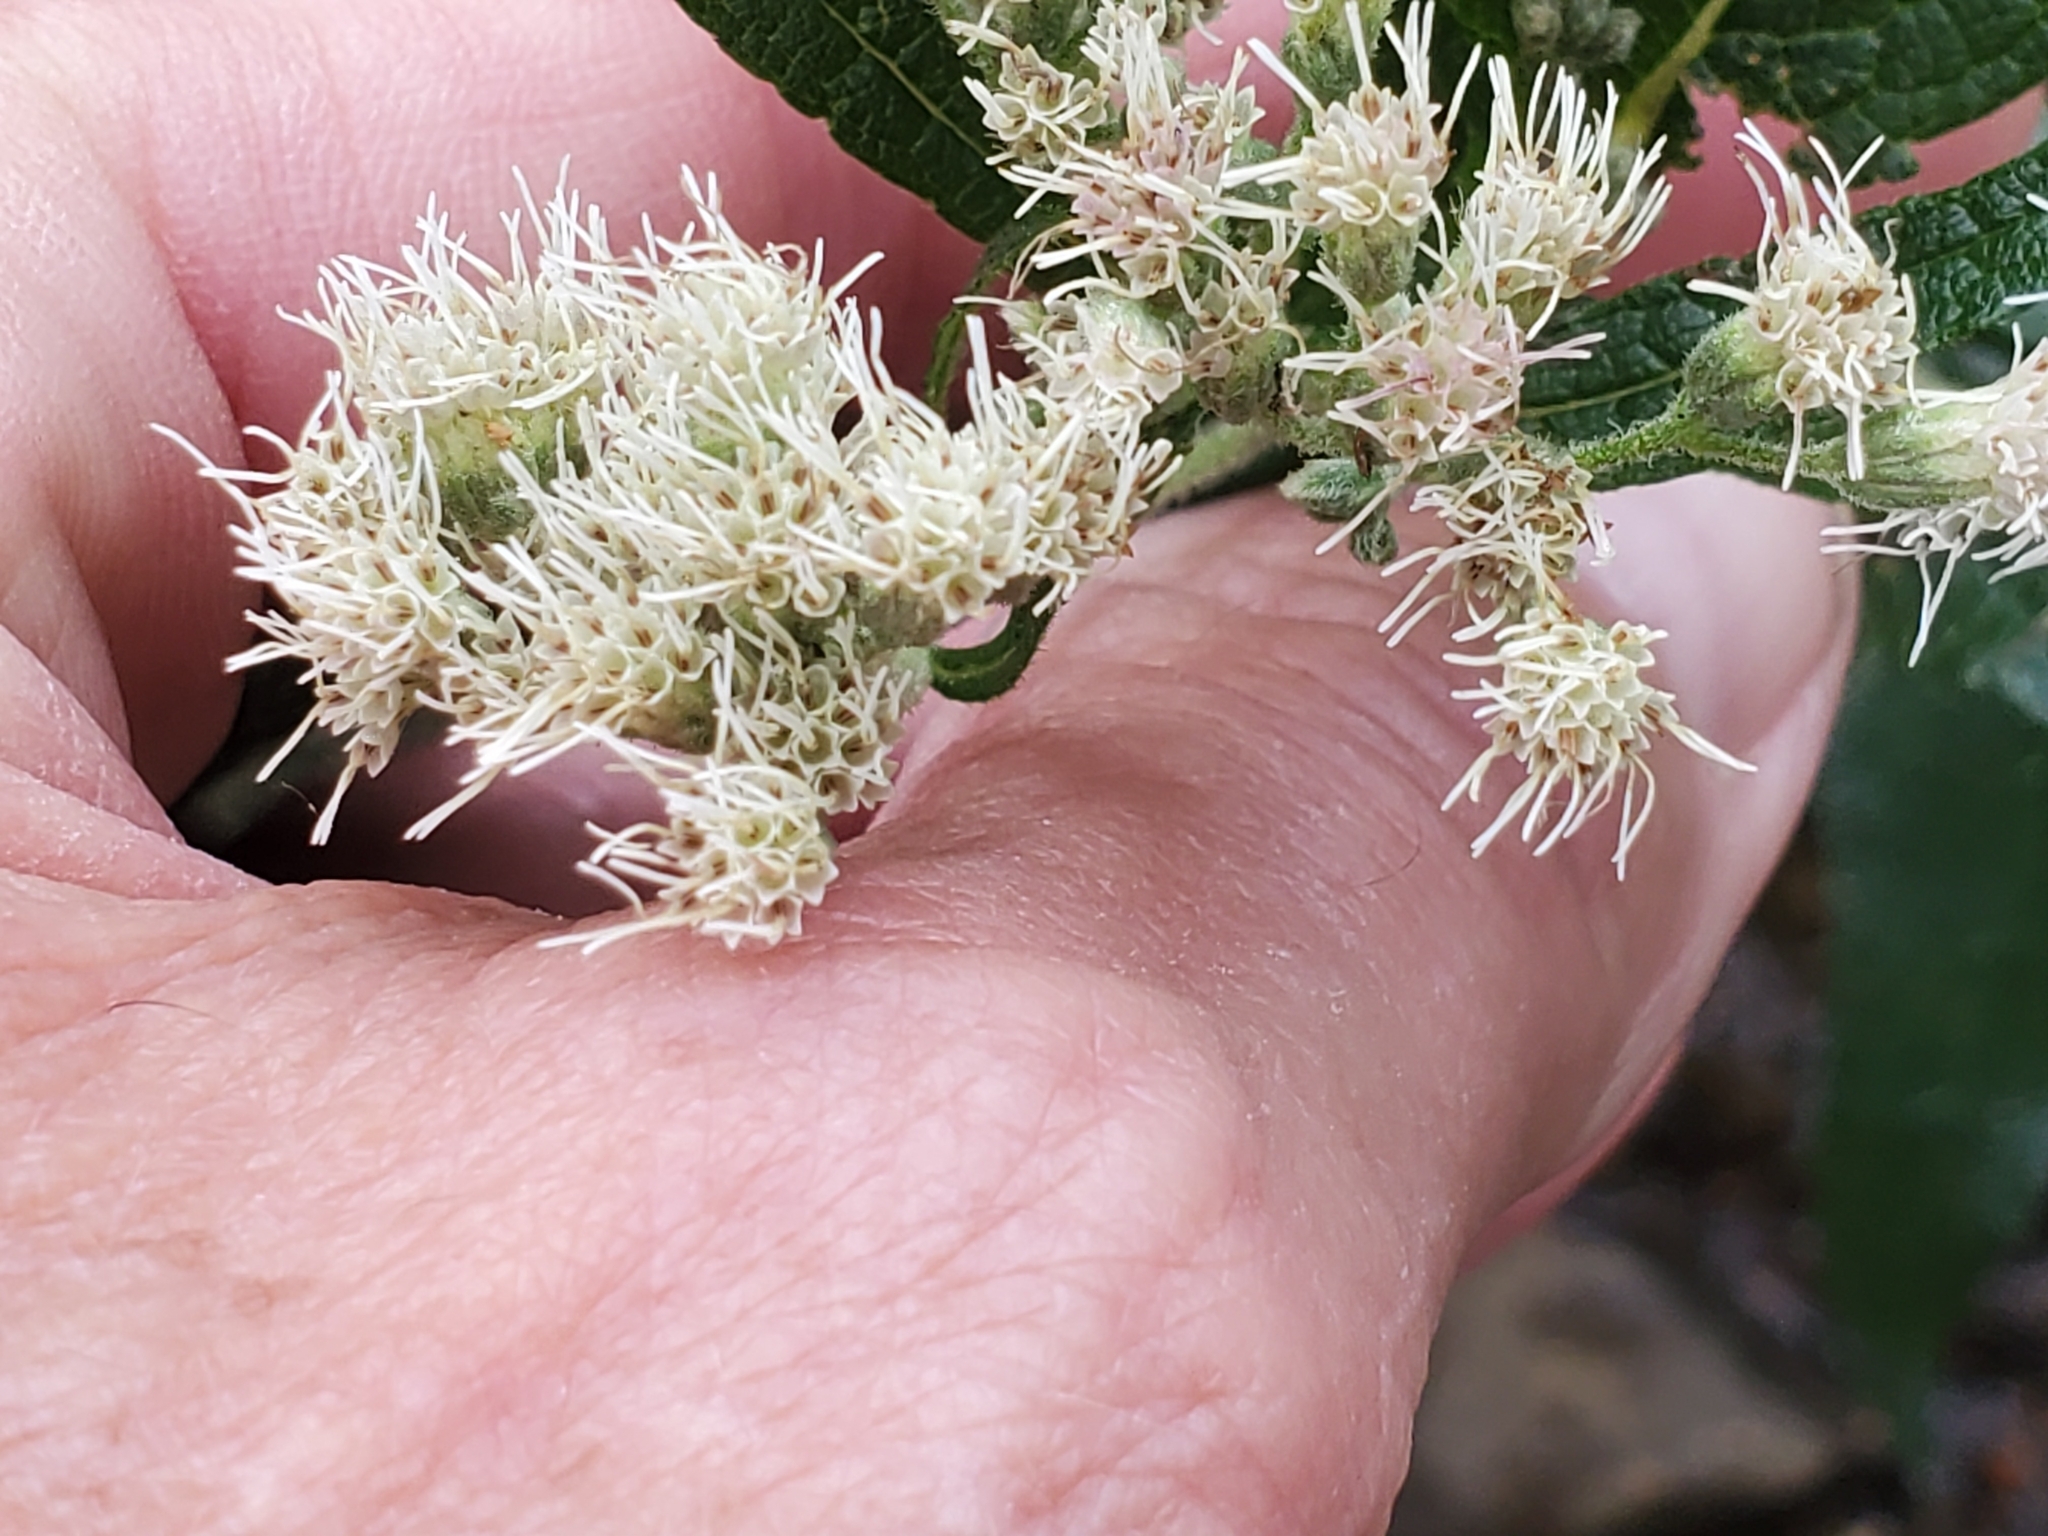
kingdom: Plantae
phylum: Tracheophyta
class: Magnoliopsida
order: Asterales
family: Asteraceae
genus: Eupatorium
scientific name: Eupatorium perfoliatum
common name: Boneset
